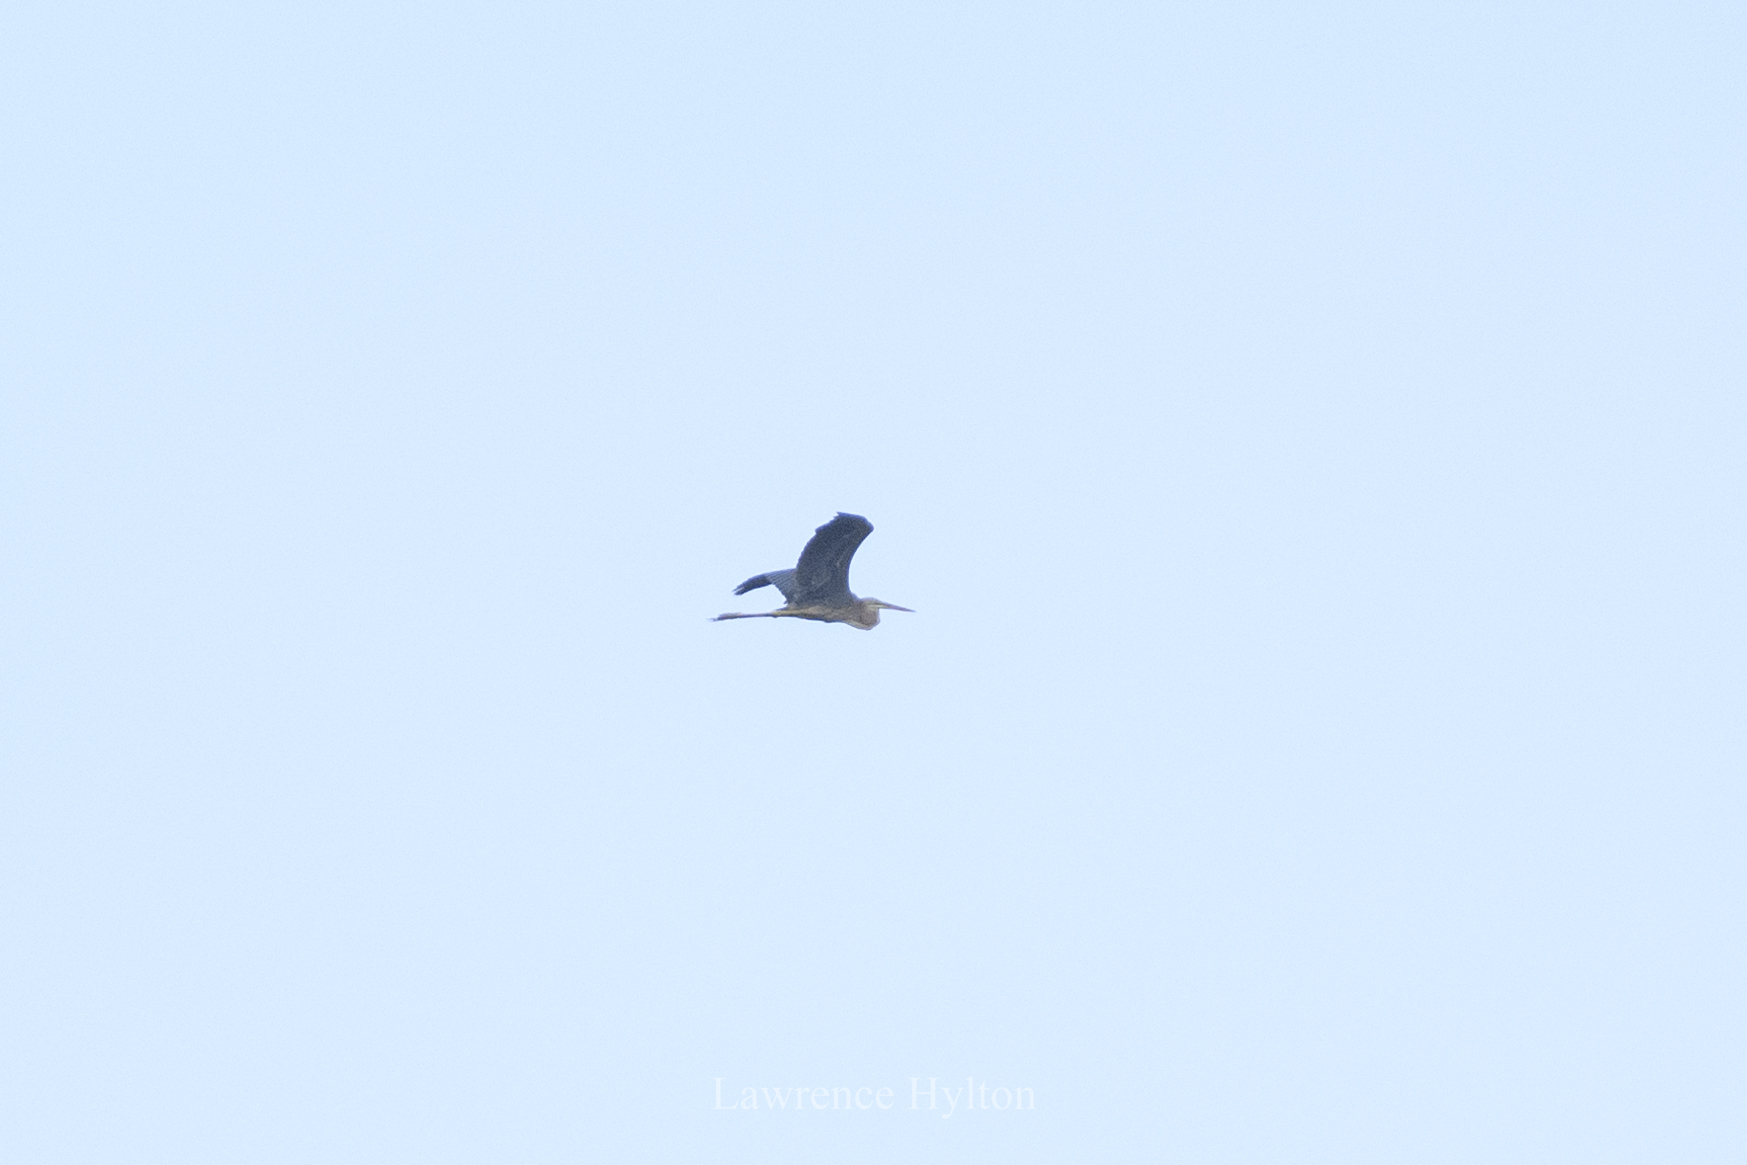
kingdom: Animalia
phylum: Chordata
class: Aves
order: Pelecaniformes
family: Ardeidae
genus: Ardea
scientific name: Ardea purpurea
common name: Purple heron
